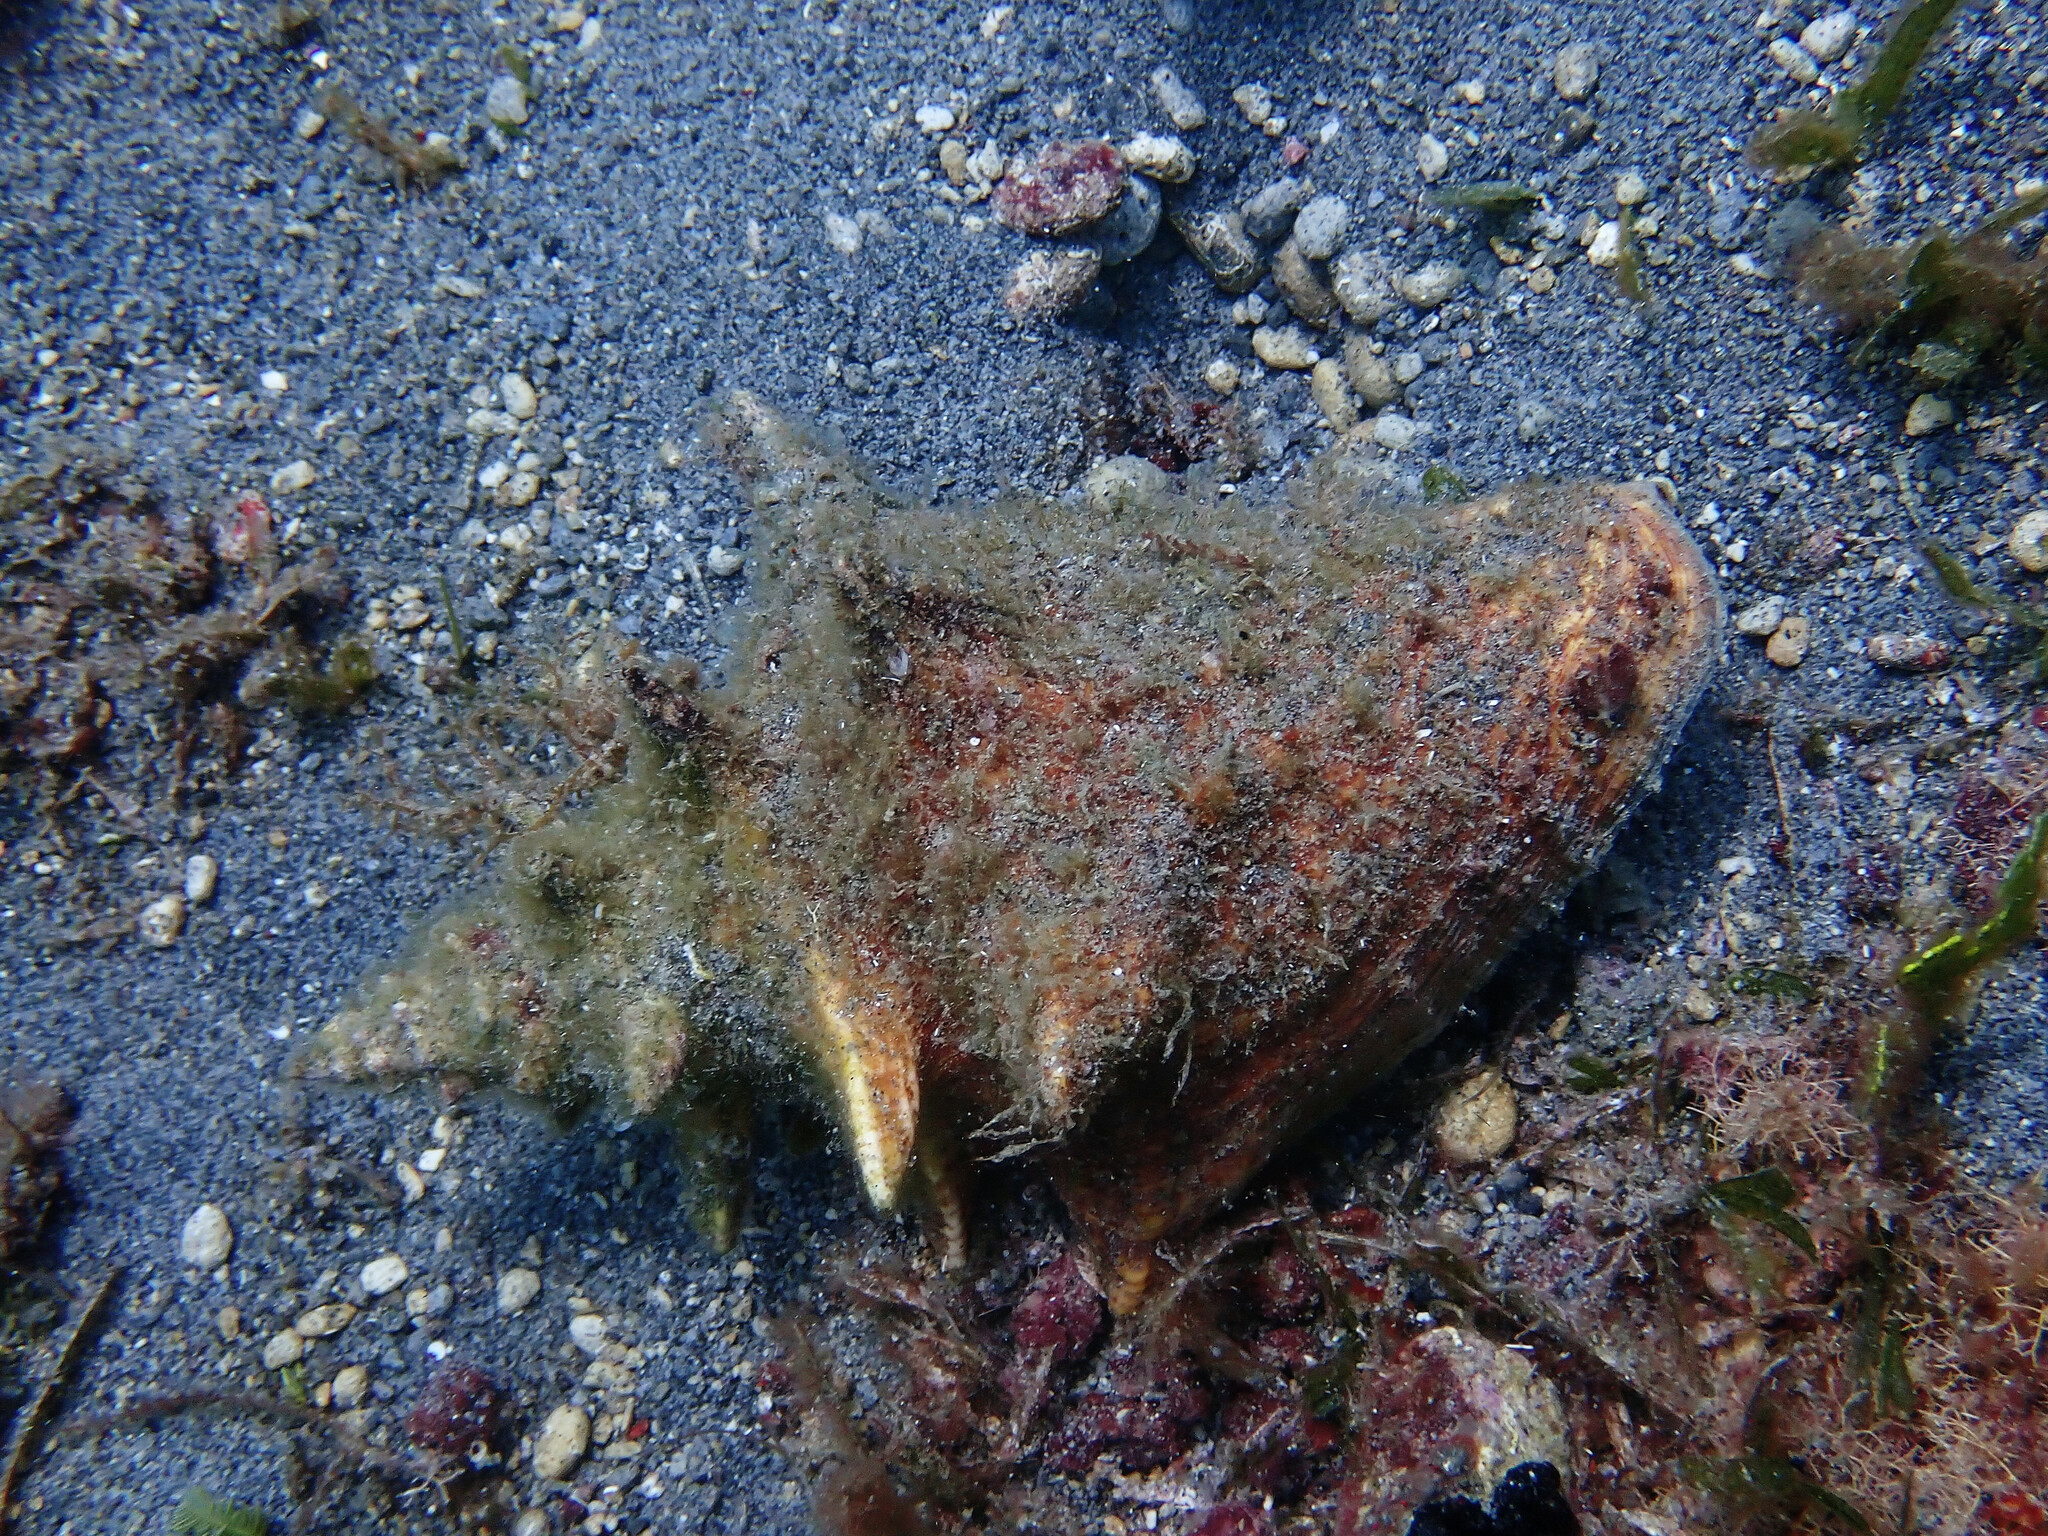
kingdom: Animalia
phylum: Mollusca
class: Gastropoda
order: Littorinimorpha
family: Strombidae
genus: Aliger
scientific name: Aliger gigas
